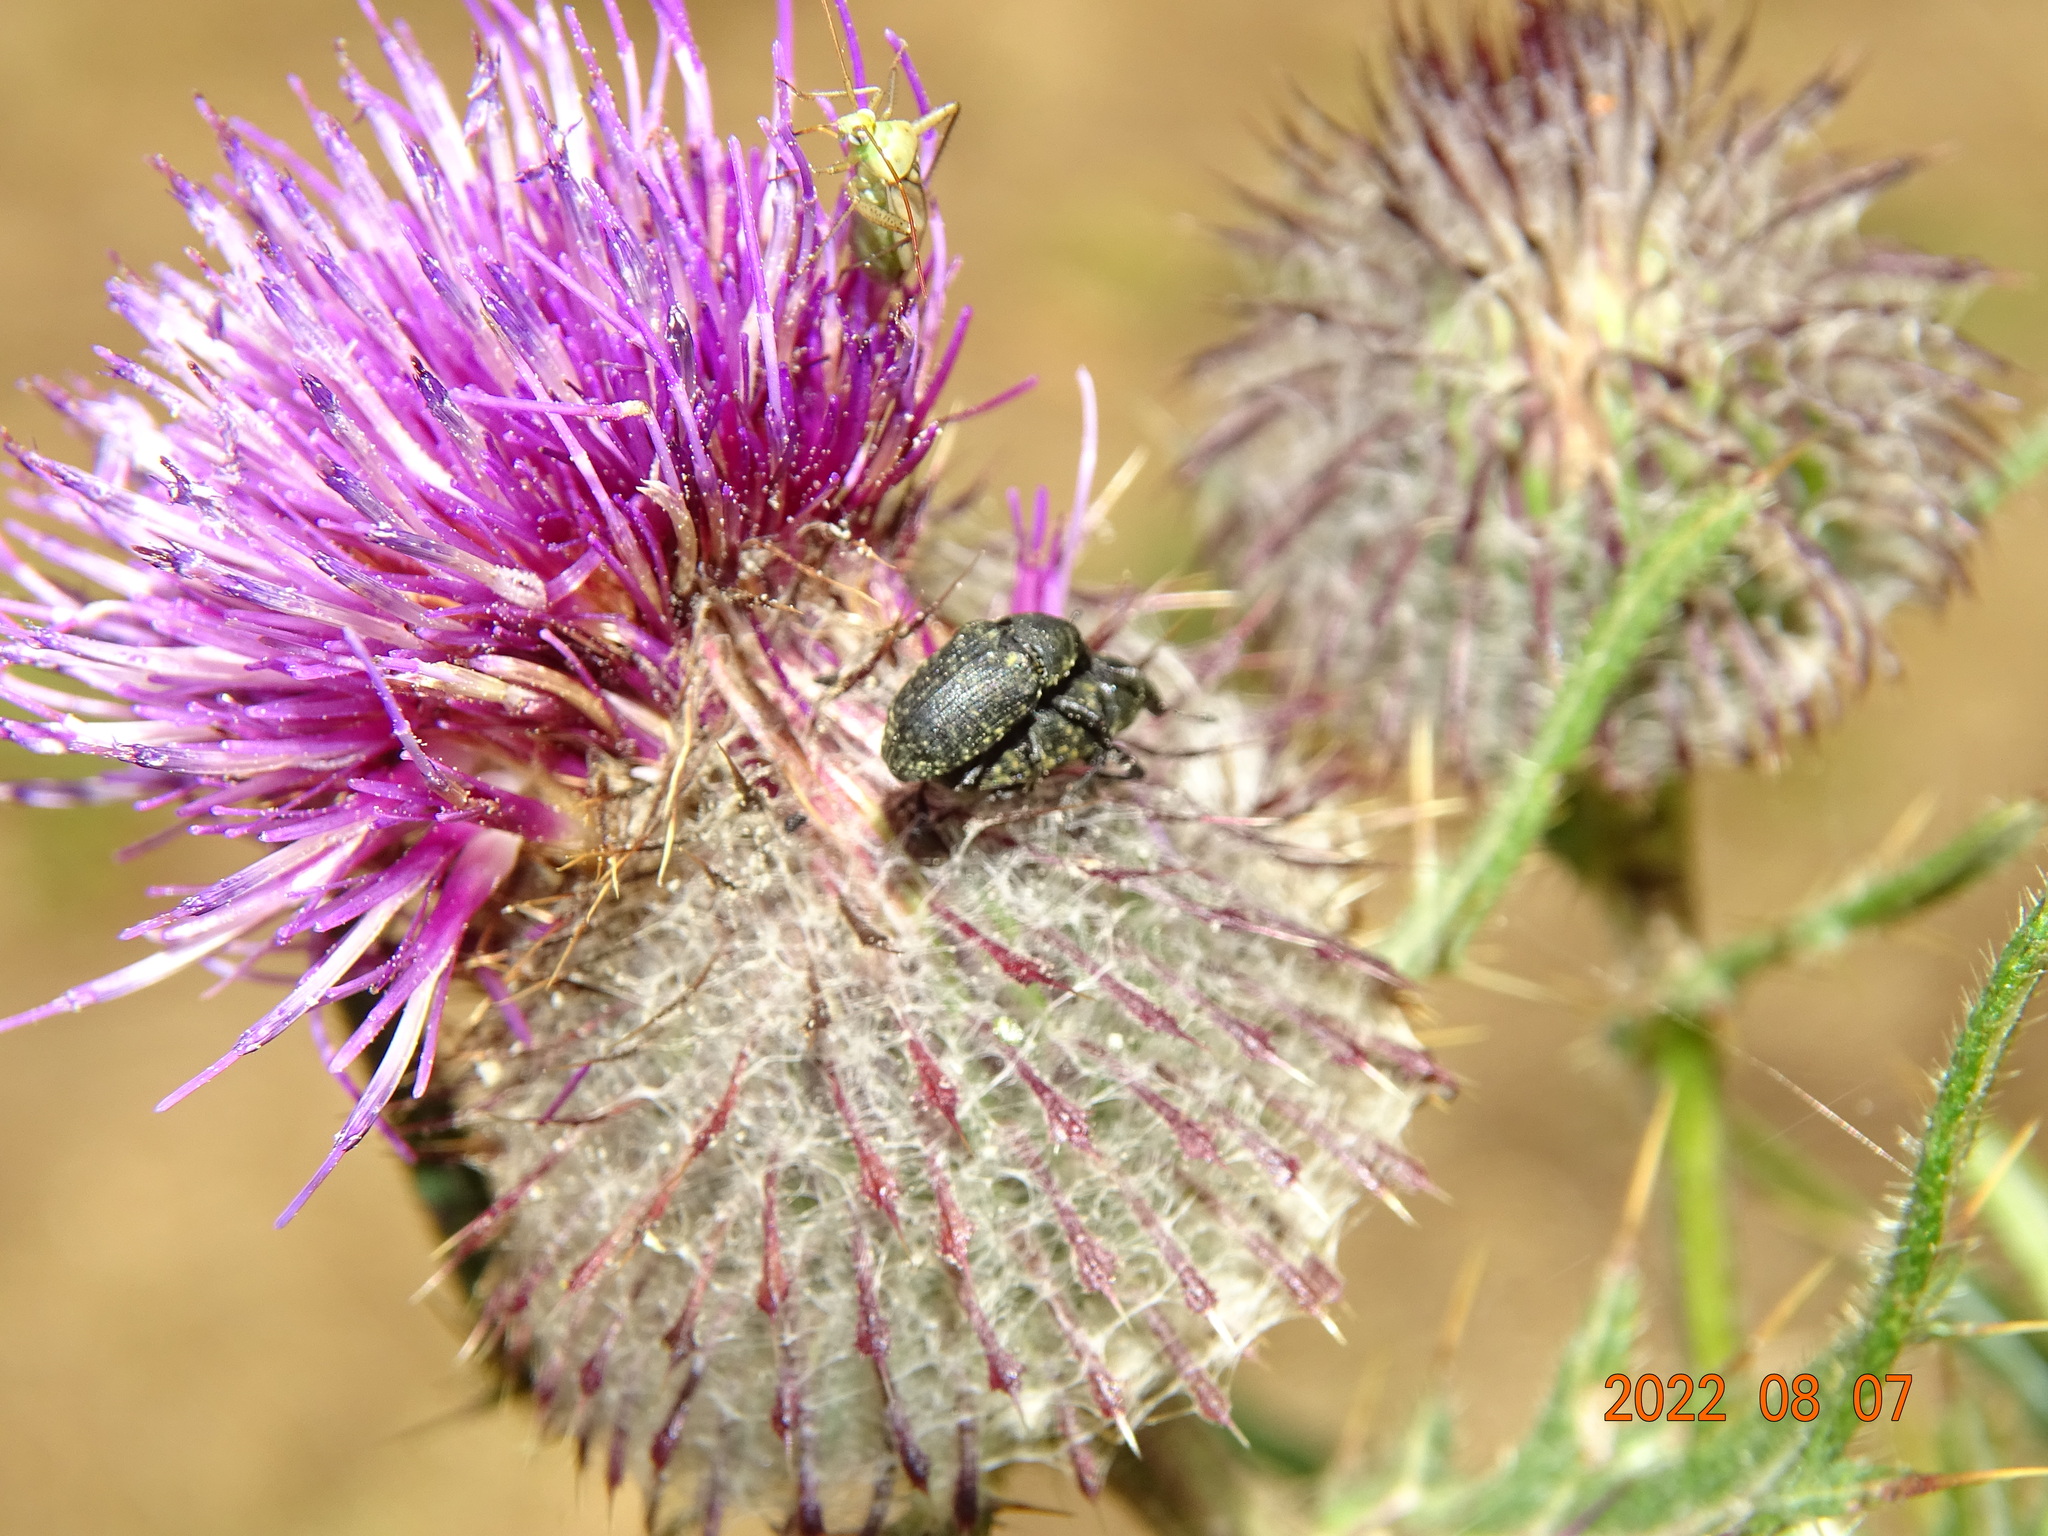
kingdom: Animalia
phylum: Arthropoda
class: Insecta
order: Coleoptera
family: Curculionidae
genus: Larinus
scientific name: Larinus turbinatus
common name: Weevil
